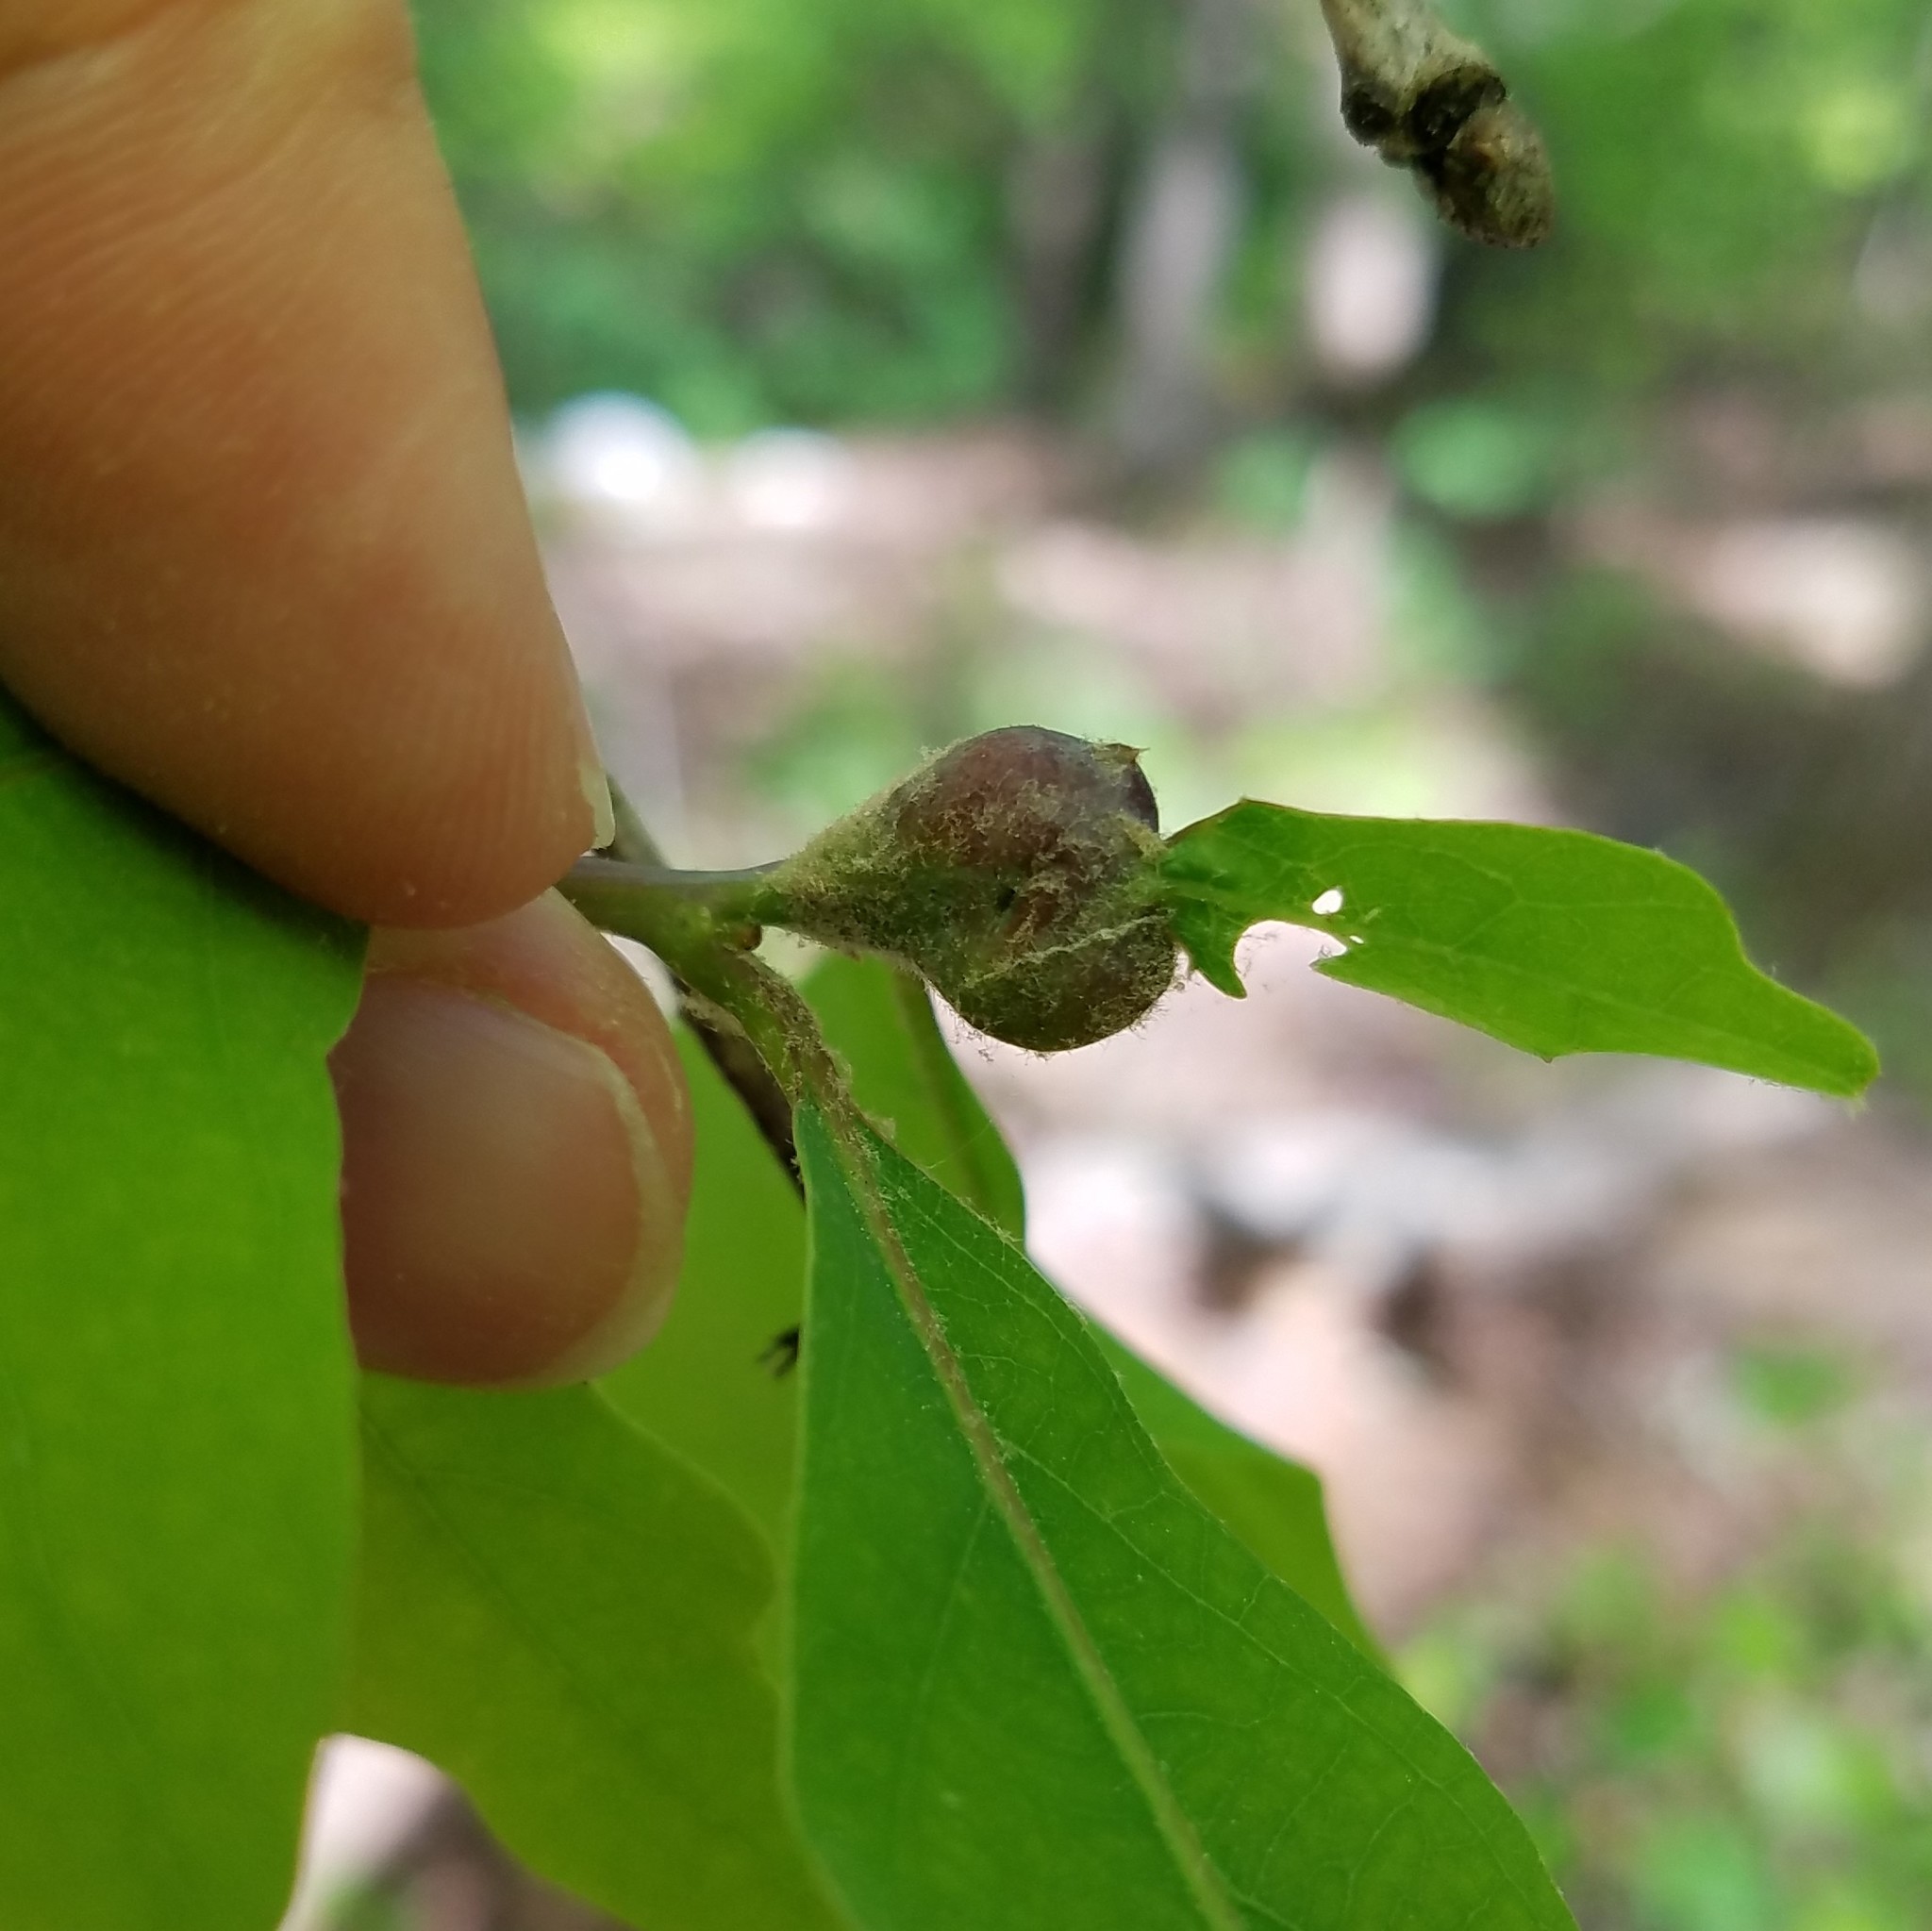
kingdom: Animalia
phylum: Arthropoda
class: Insecta
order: Hymenoptera
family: Cynipidae
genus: Andricus
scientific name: Andricus
